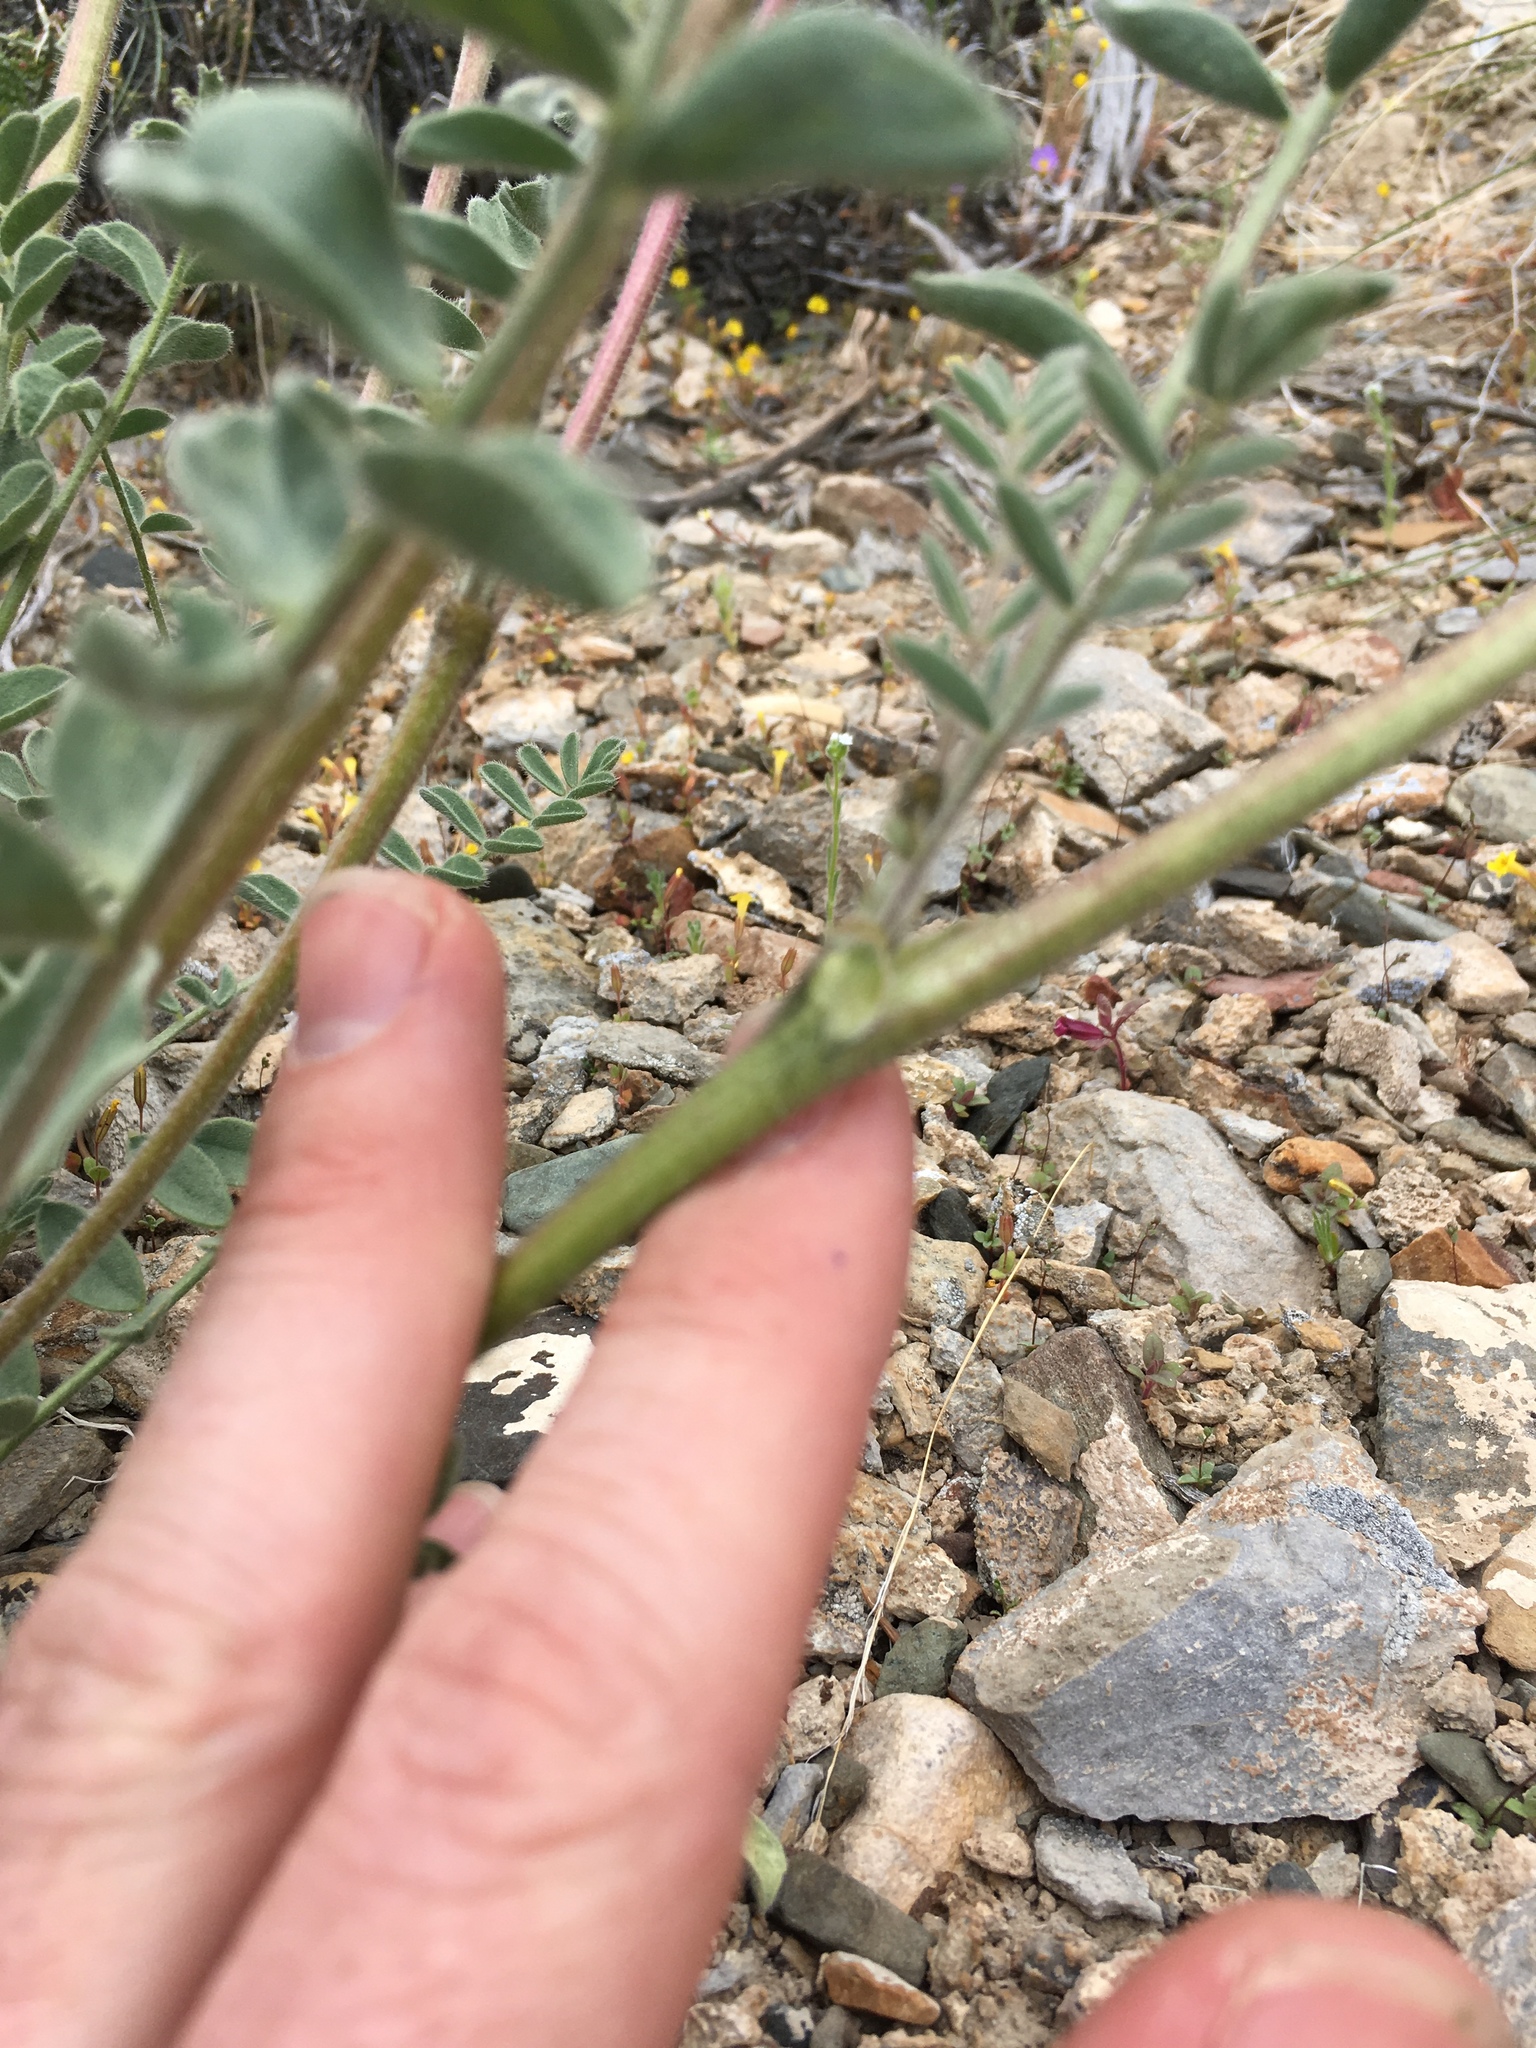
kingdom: Plantae
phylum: Tracheophyta
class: Magnoliopsida
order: Fabales
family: Fabaceae
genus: Astragalus
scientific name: Astragalus minthorniae
